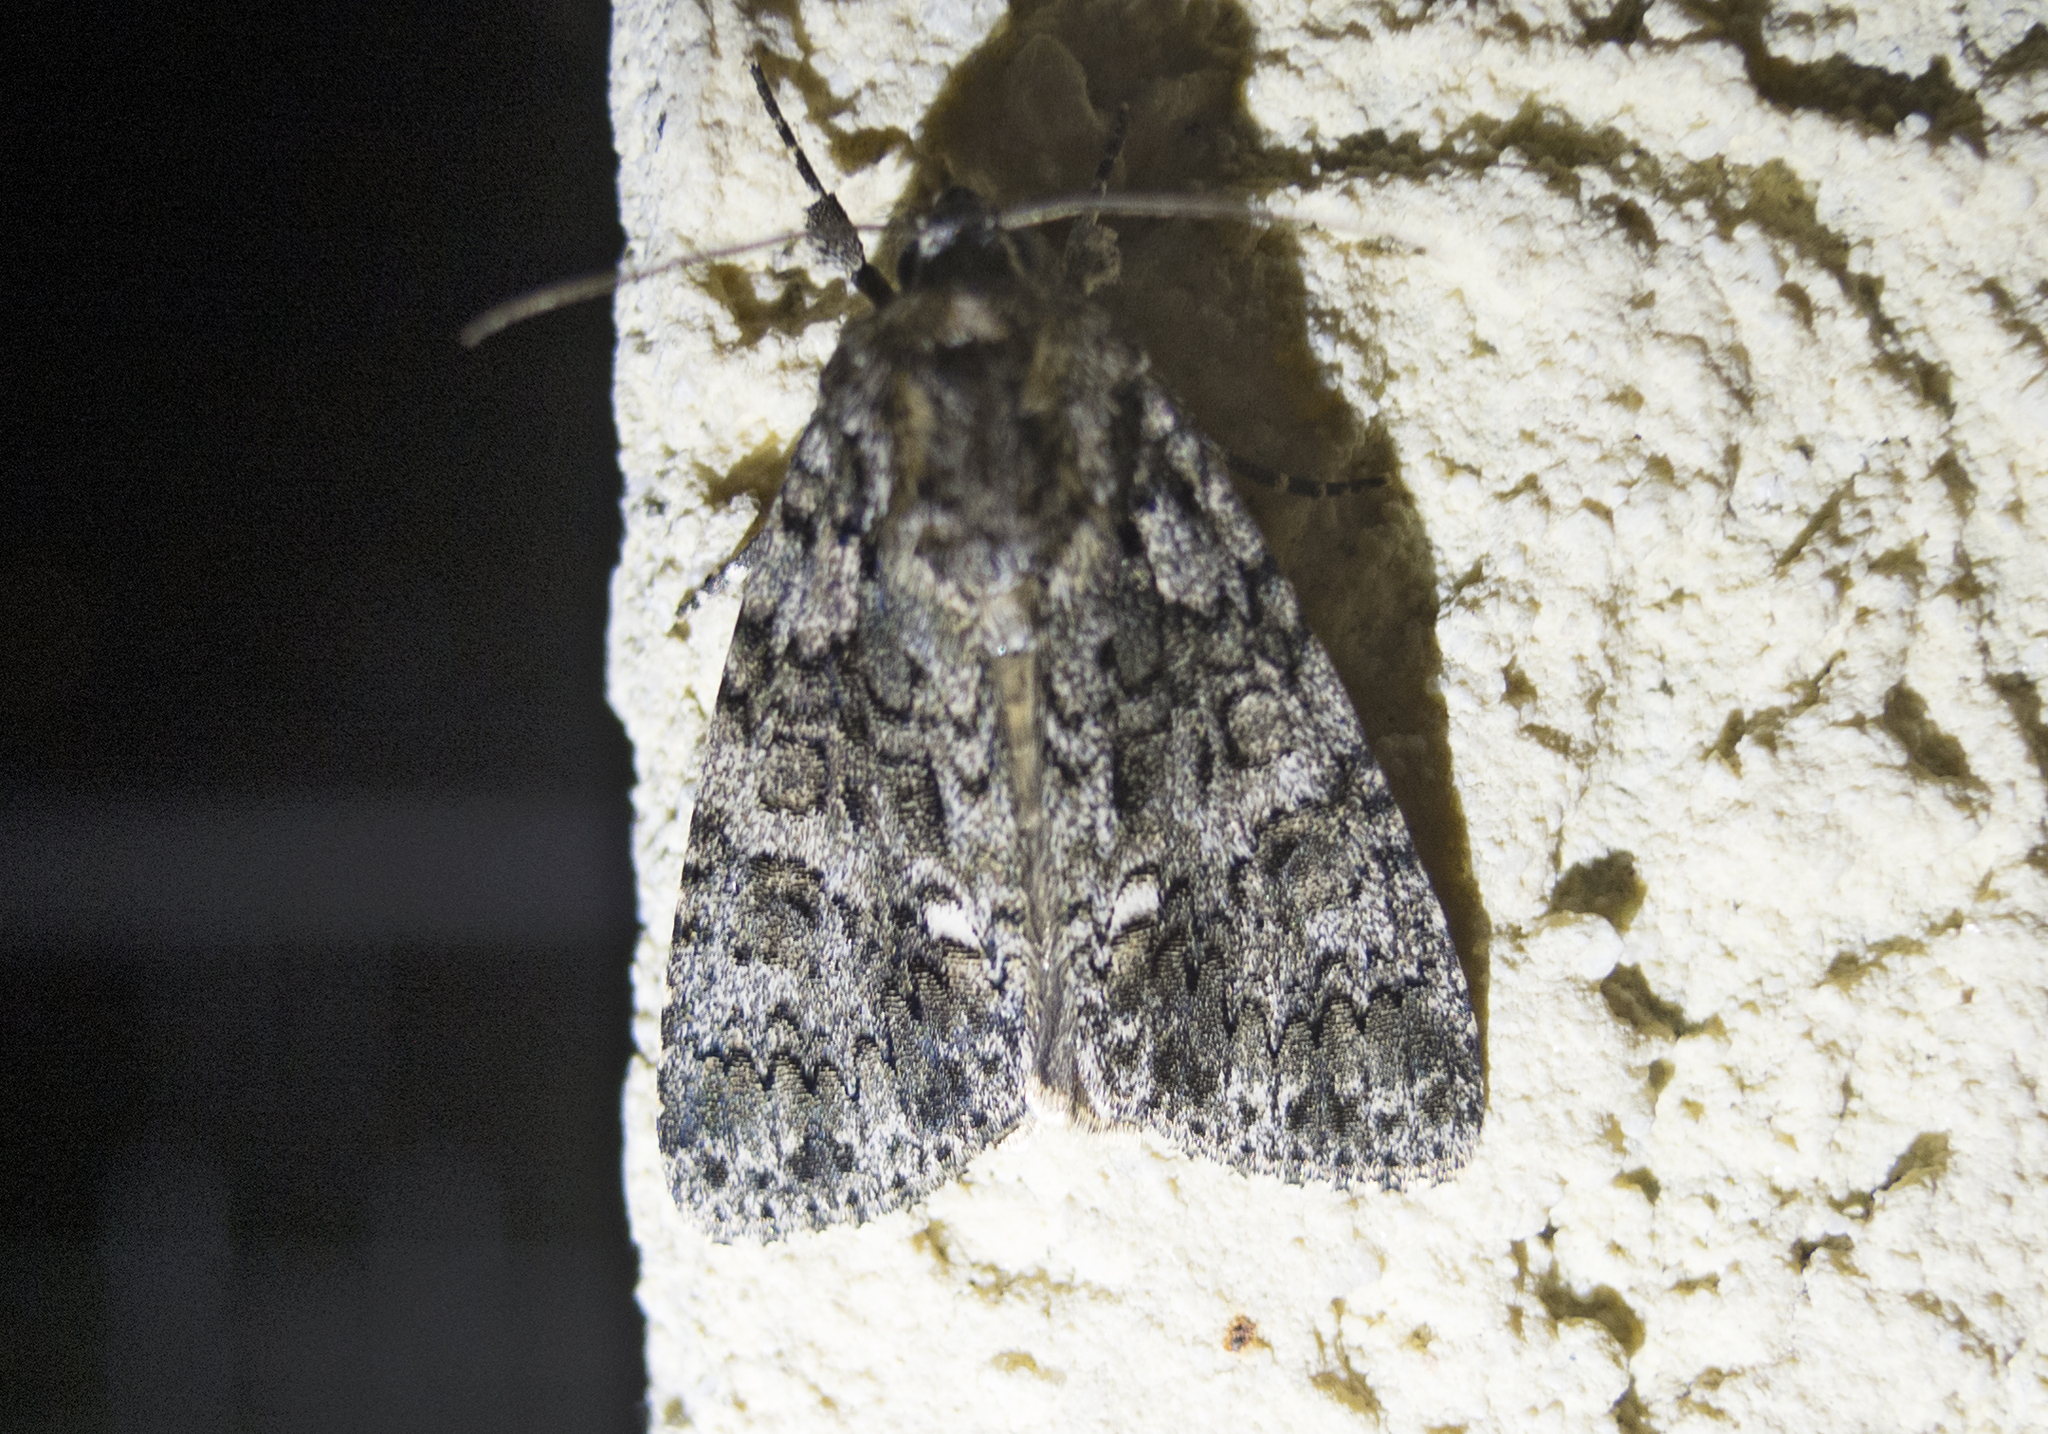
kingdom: Animalia
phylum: Arthropoda
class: Insecta
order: Lepidoptera
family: Noctuidae
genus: Acronicta
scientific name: Acronicta rumicis
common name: Knot grass
